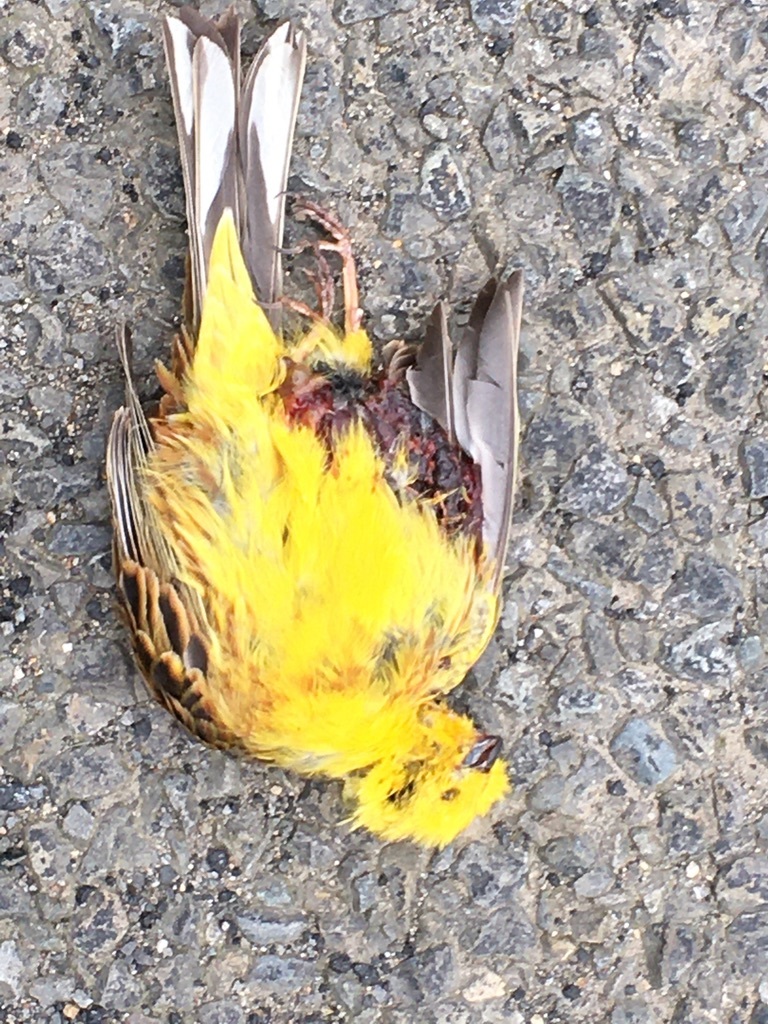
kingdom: Animalia
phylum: Chordata
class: Aves
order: Passeriformes
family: Emberizidae
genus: Emberiza
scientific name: Emberiza citrinella
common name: Yellowhammer
